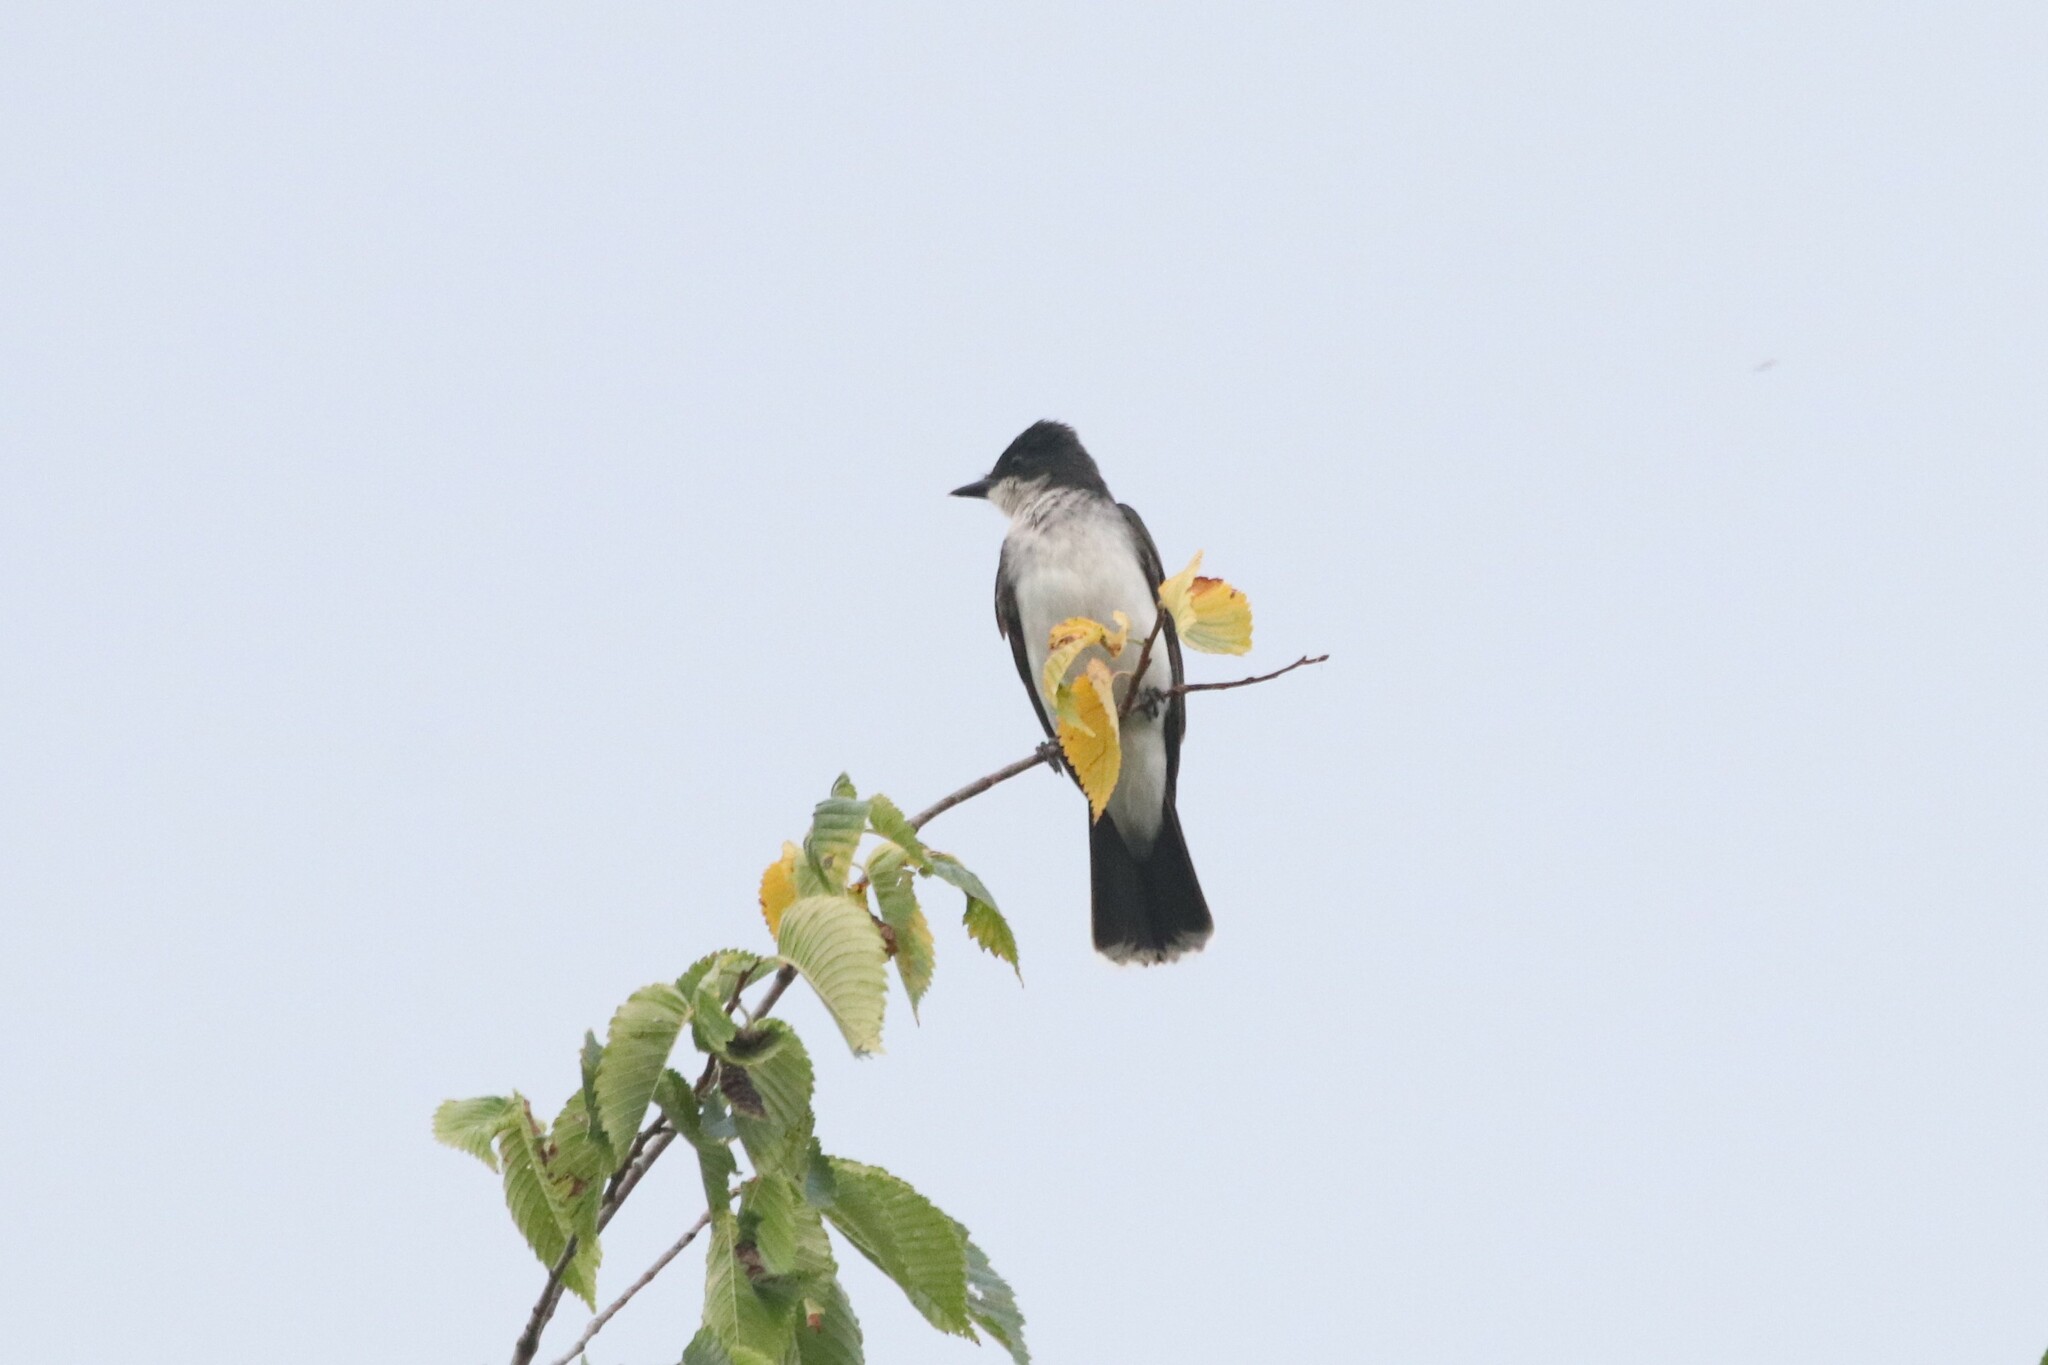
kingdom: Animalia
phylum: Chordata
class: Aves
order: Passeriformes
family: Tyrannidae
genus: Tyrannus
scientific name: Tyrannus tyrannus
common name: Eastern kingbird
